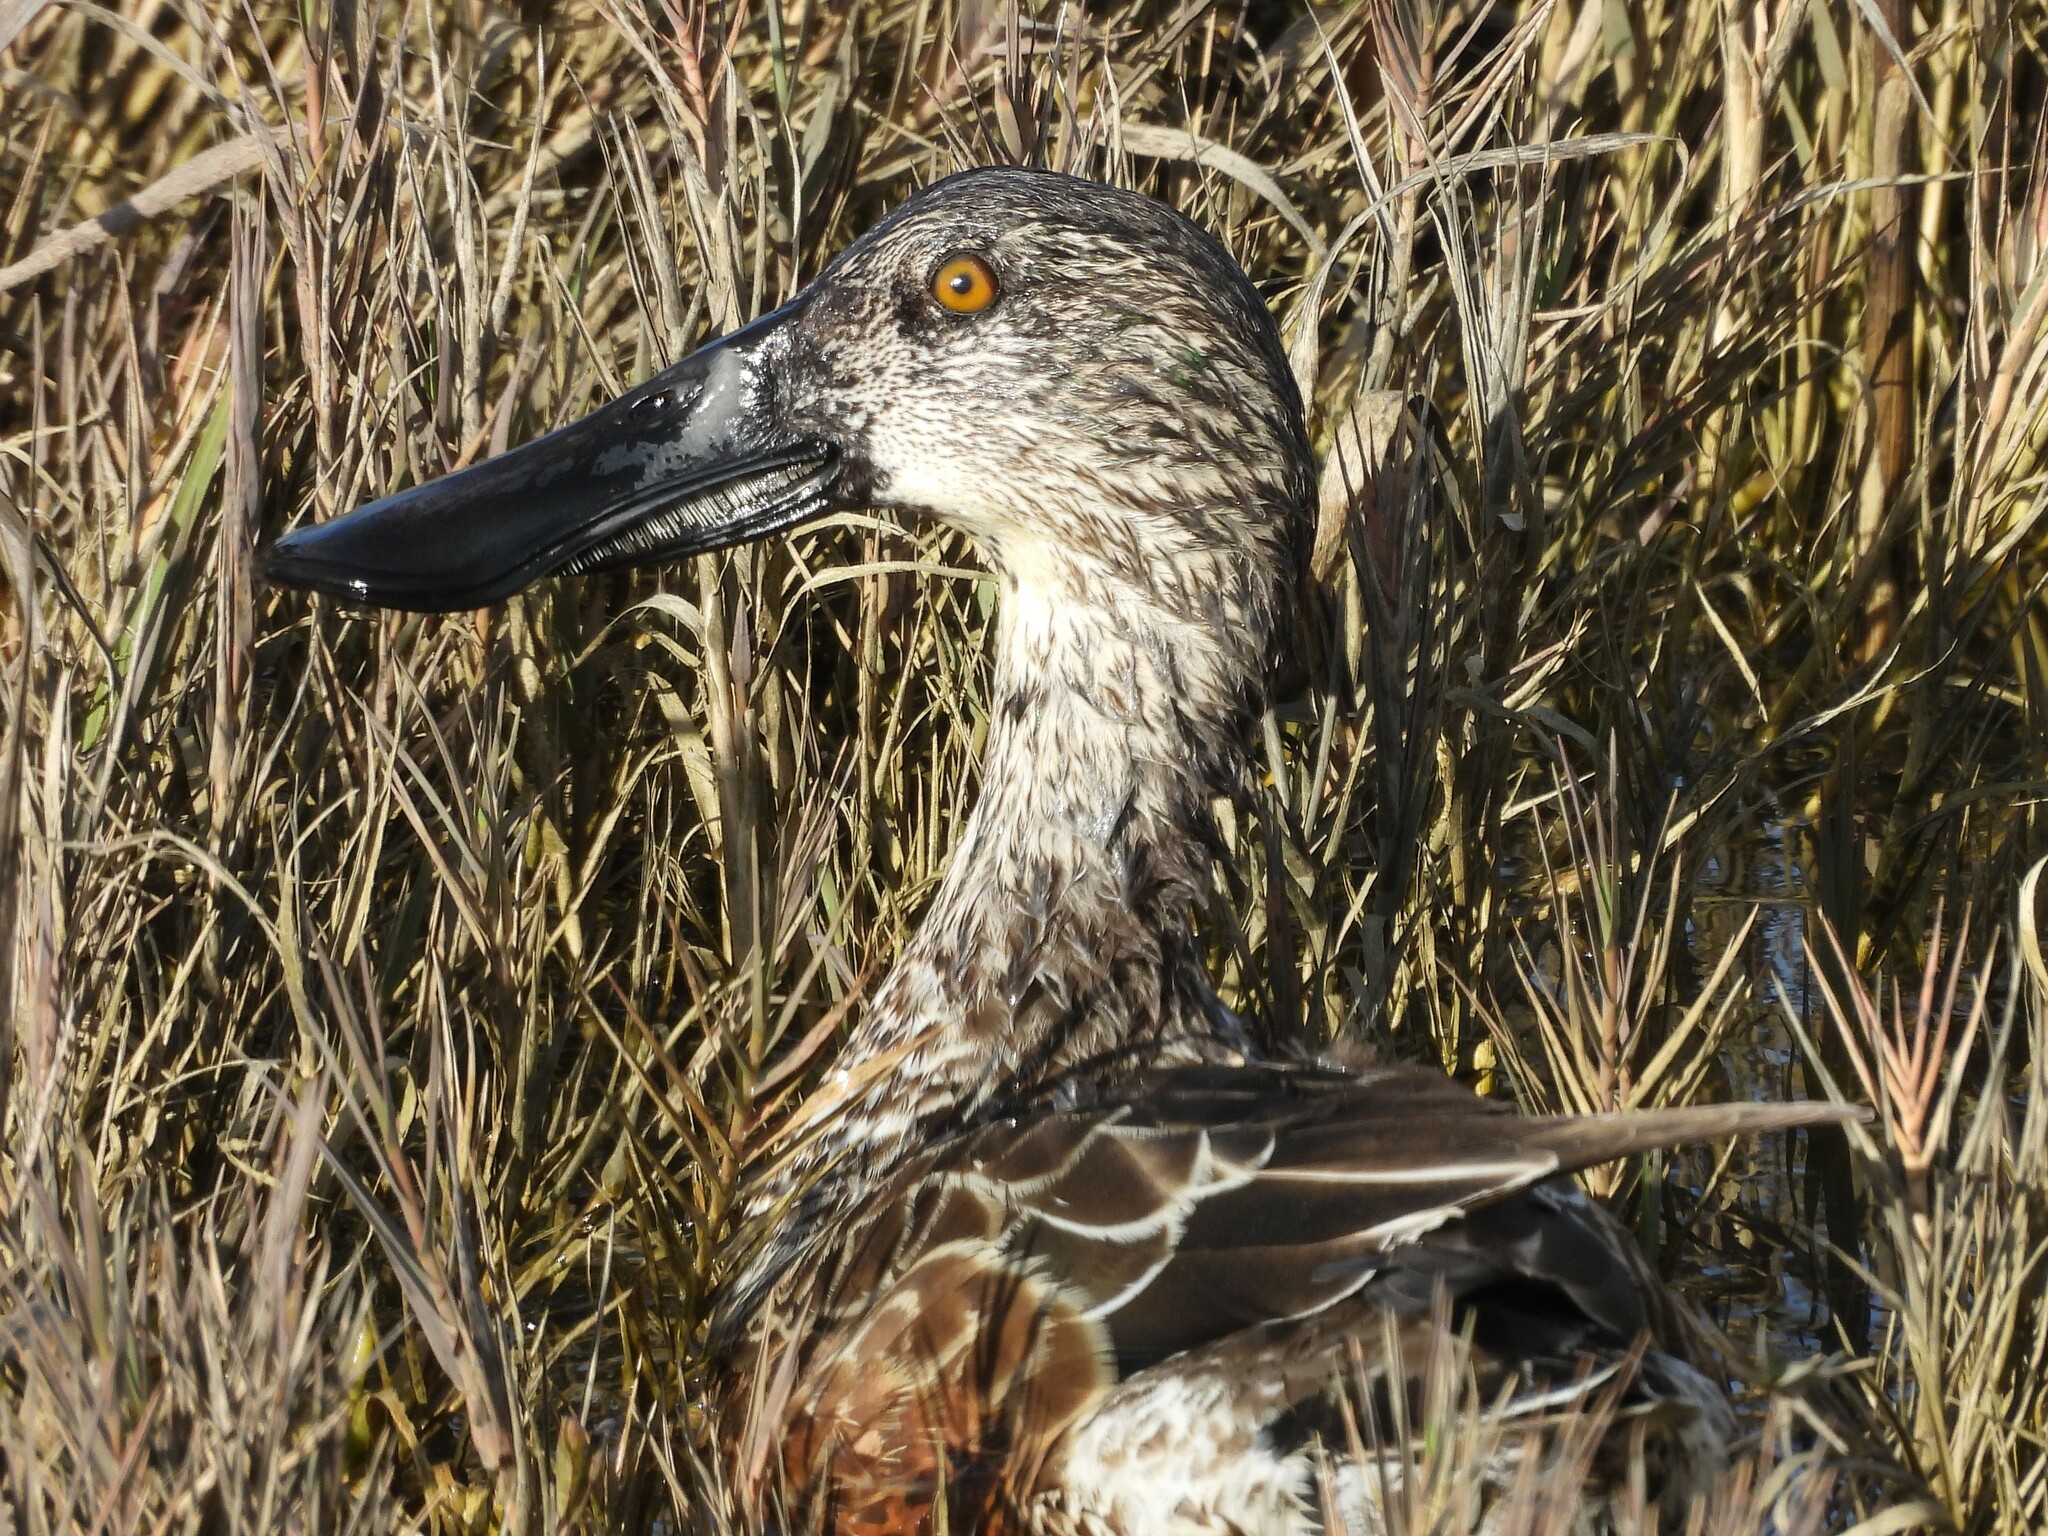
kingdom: Animalia
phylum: Chordata
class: Aves
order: Anseriformes
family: Anatidae
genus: Spatula
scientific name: Spatula clypeata
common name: Northern shoveler
